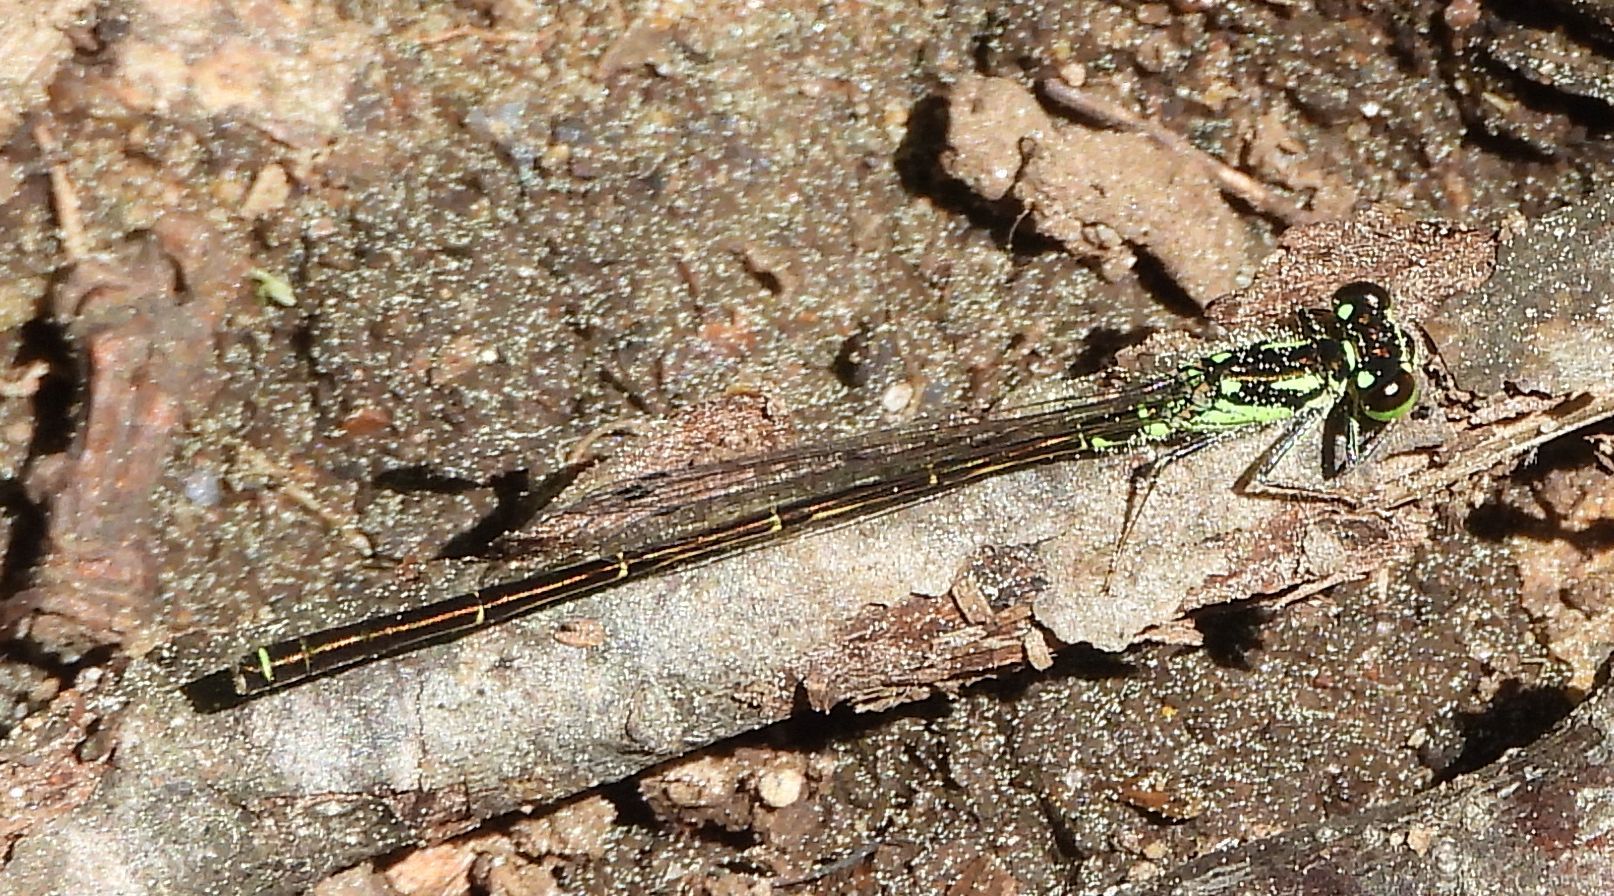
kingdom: Animalia
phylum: Arthropoda
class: Insecta
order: Odonata
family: Coenagrionidae
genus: Ischnura
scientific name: Ischnura posita
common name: Fragile forktail
